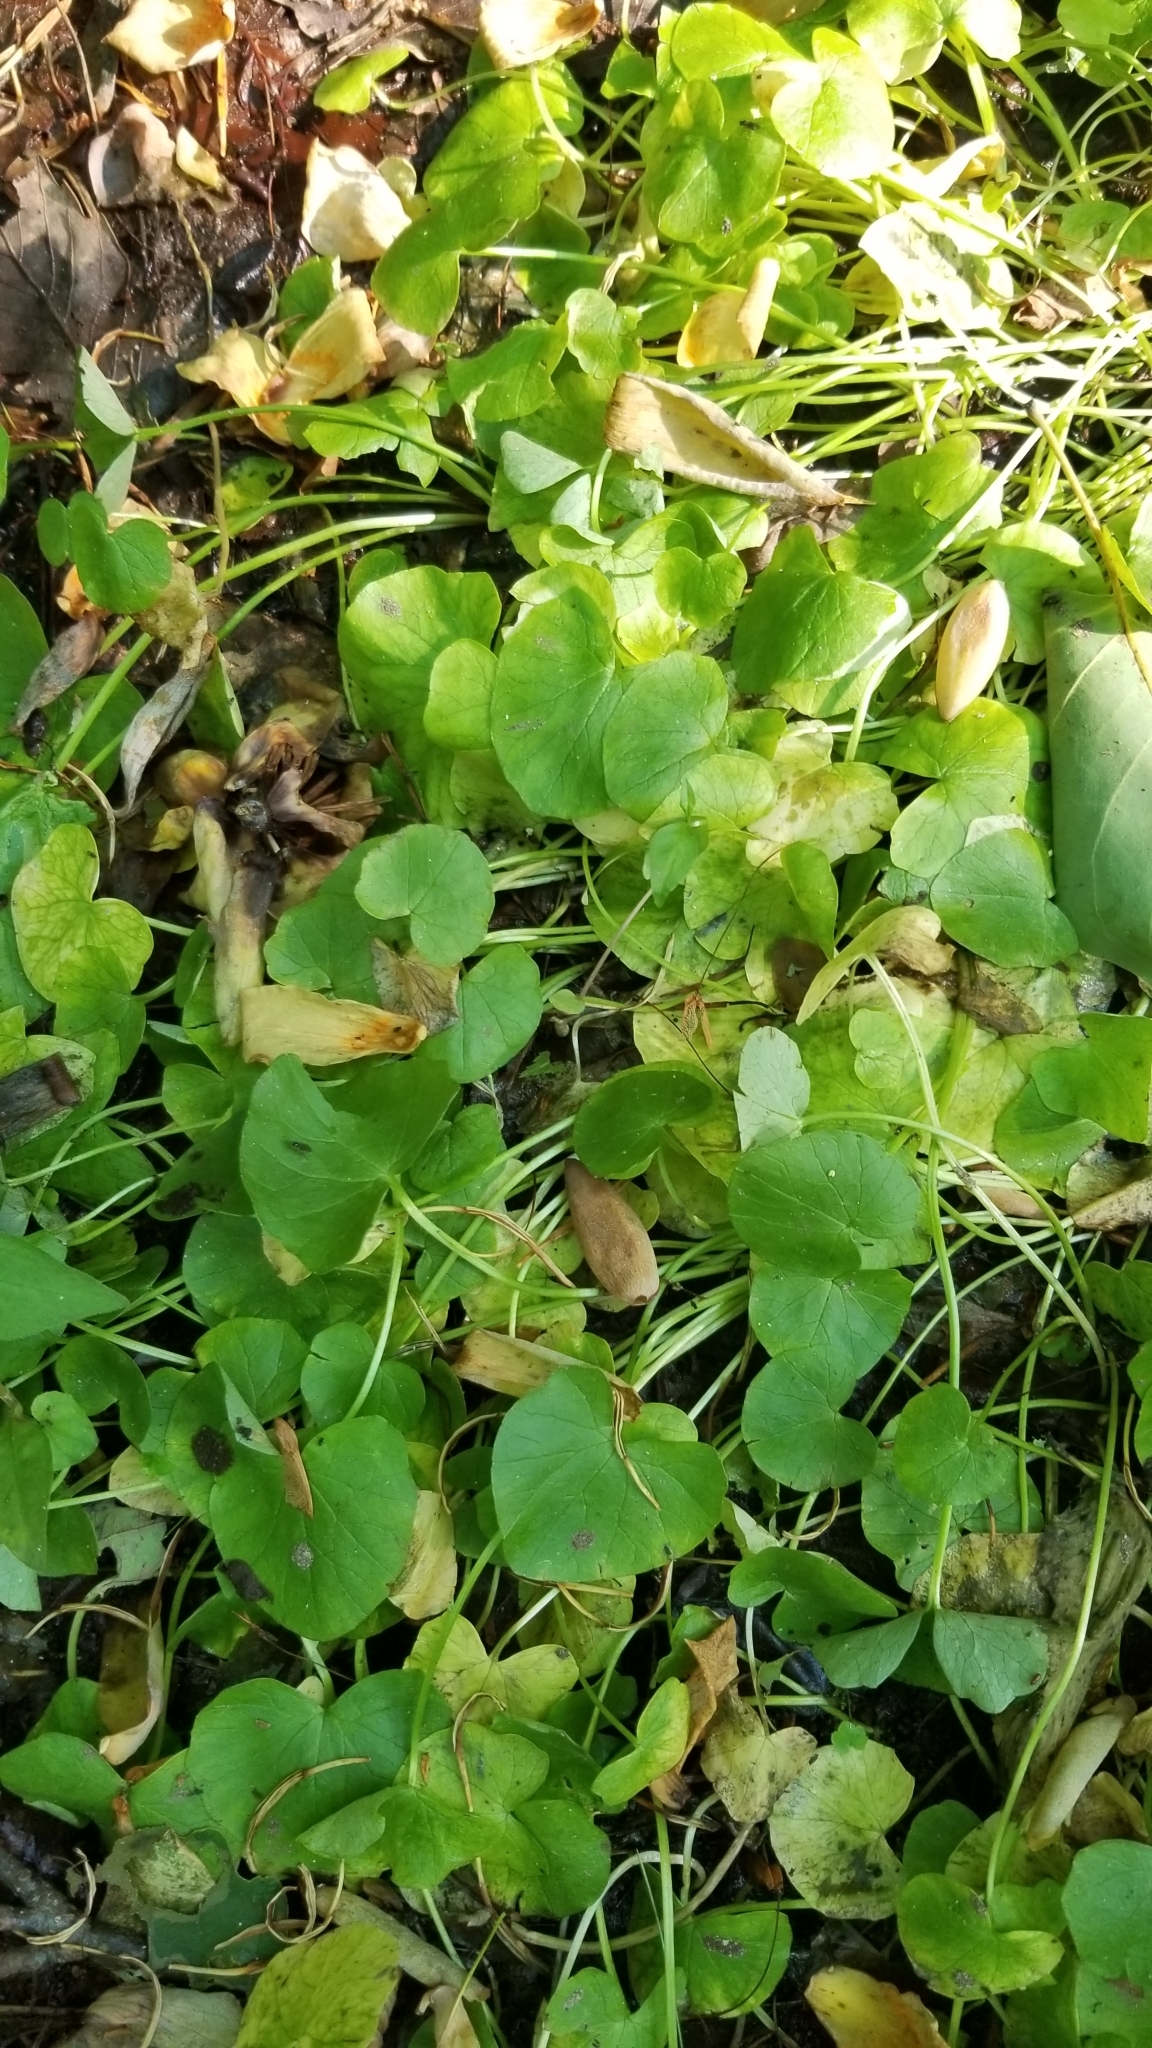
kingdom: Plantae
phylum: Tracheophyta
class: Magnoliopsida
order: Ranunculales
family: Ranunculaceae
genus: Ficaria
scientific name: Ficaria verna
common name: Lesser celandine
